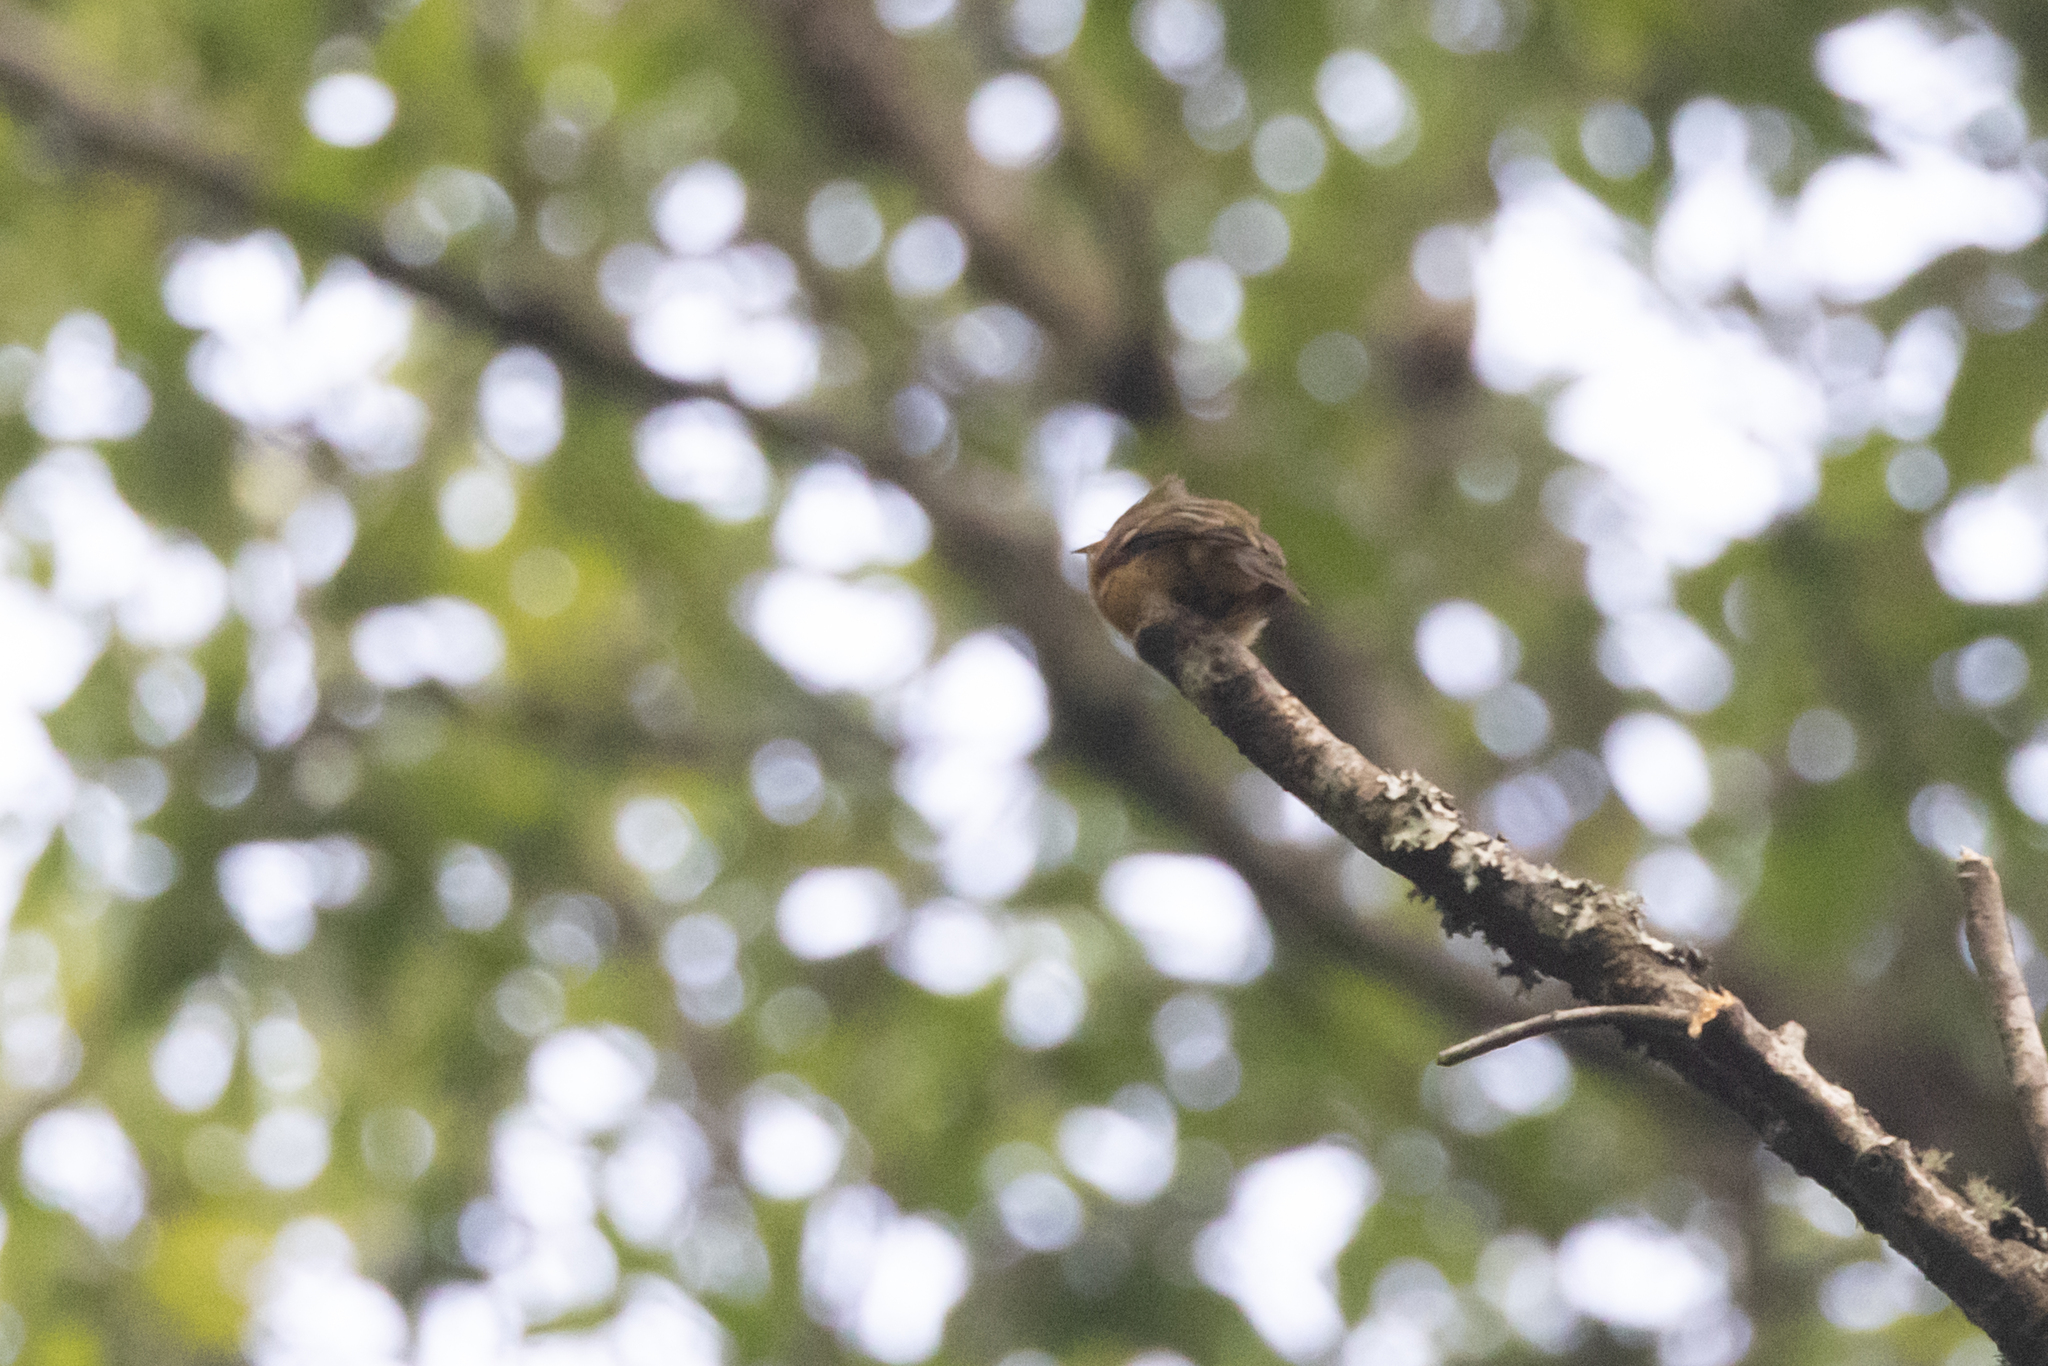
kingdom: Animalia
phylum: Chordata
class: Aves
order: Passeriformes
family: Tyrannidae
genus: Mitrephanes
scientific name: Mitrephanes phaeocercus
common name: Northern tufted flycatcher
